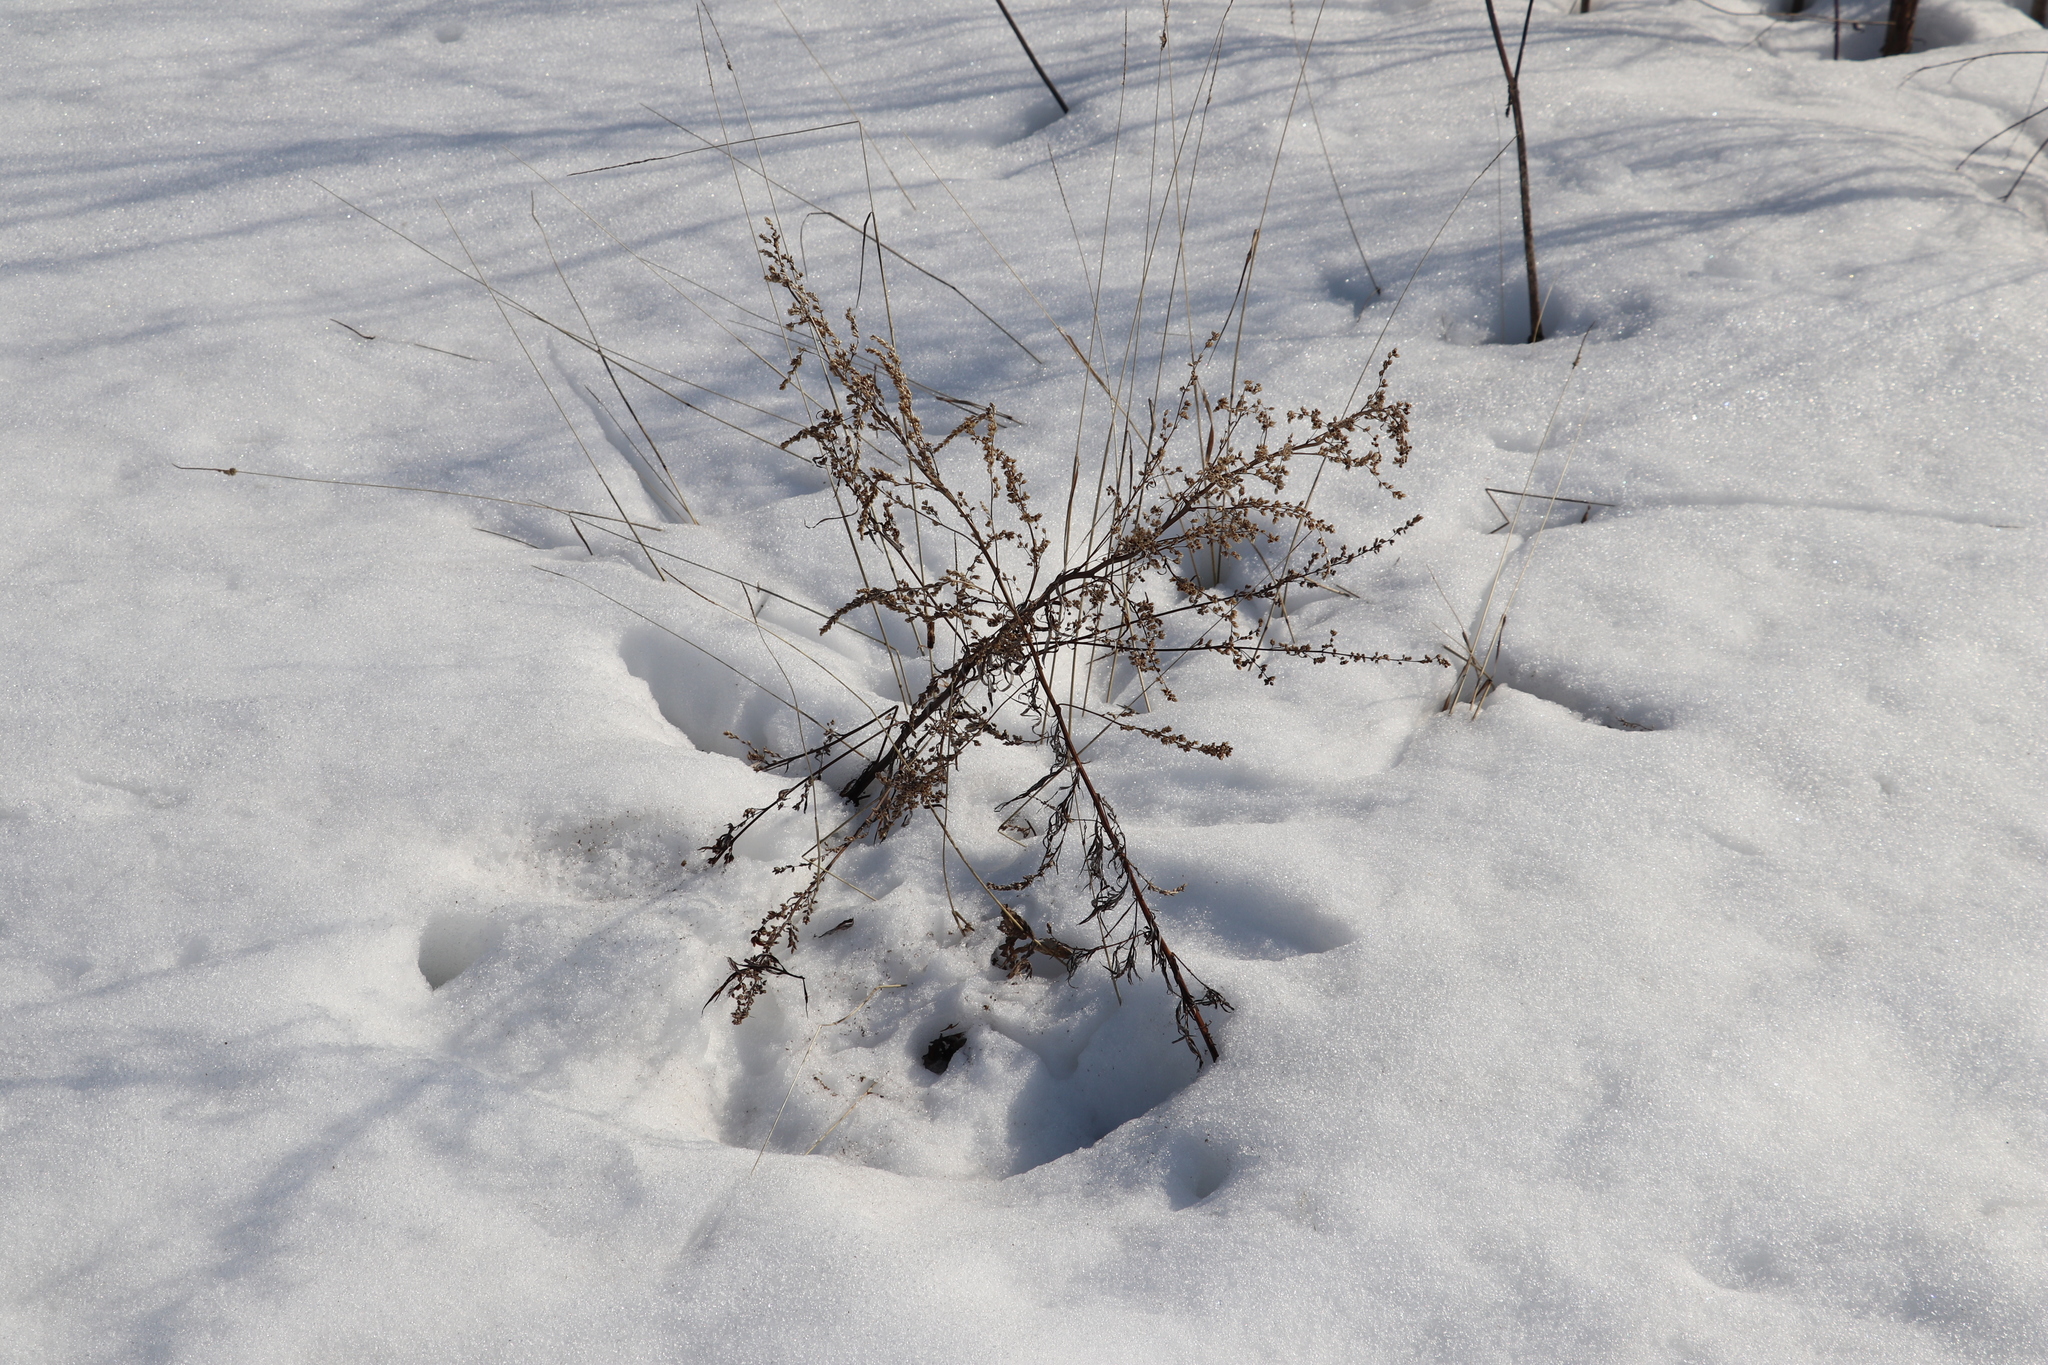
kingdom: Plantae
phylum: Tracheophyta
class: Magnoliopsida
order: Asterales
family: Asteraceae
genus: Artemisia
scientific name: Artemisia vulgaris
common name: Mugwort
